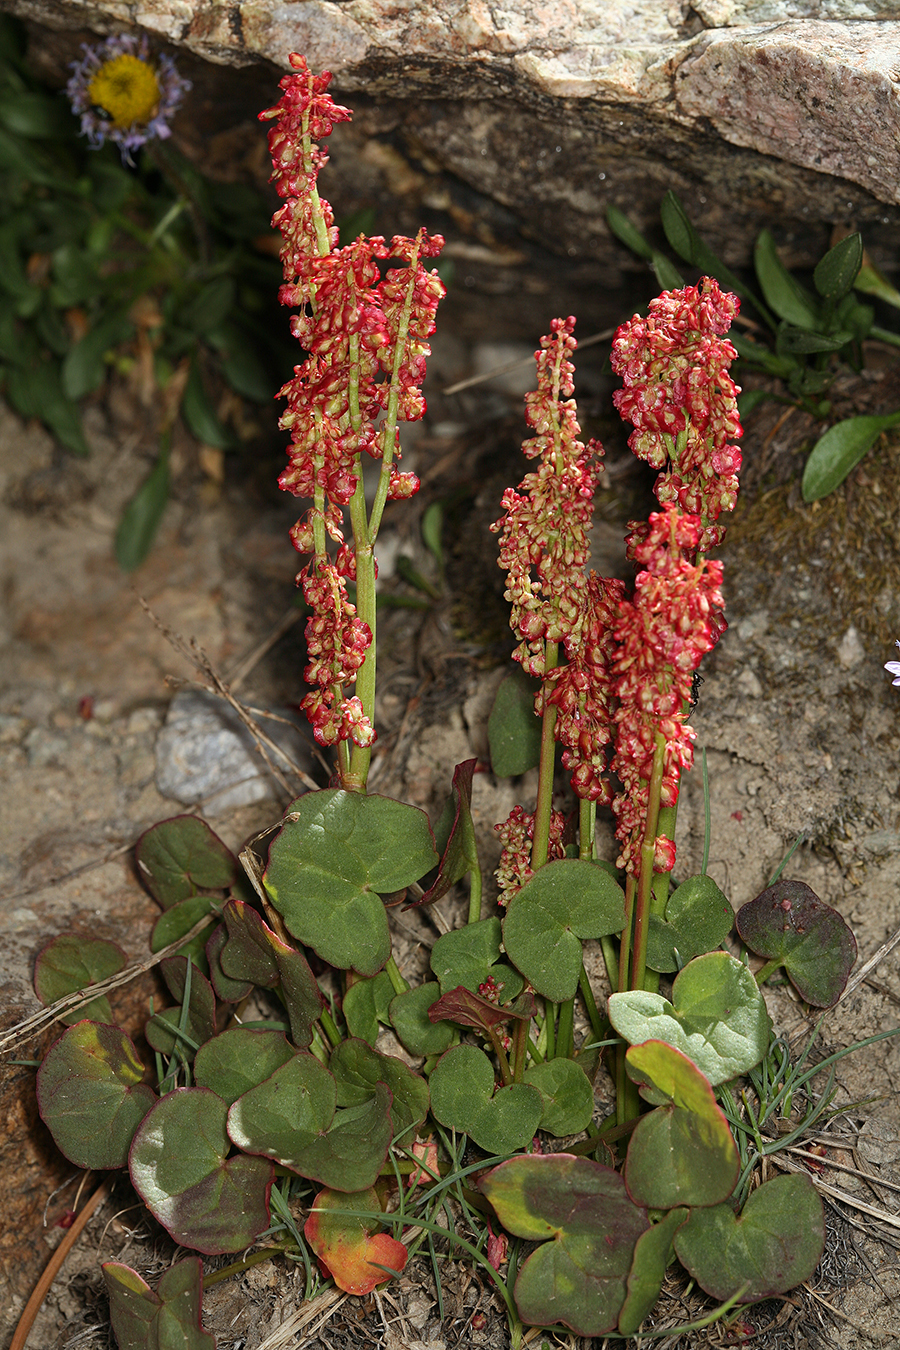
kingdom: Plantae
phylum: Tracheophyta
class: Magnoliopsida
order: Caryophyllales
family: Polygonaceae
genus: Oxyria
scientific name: Oxyria digyna
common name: Alpine mountain-sorrel
